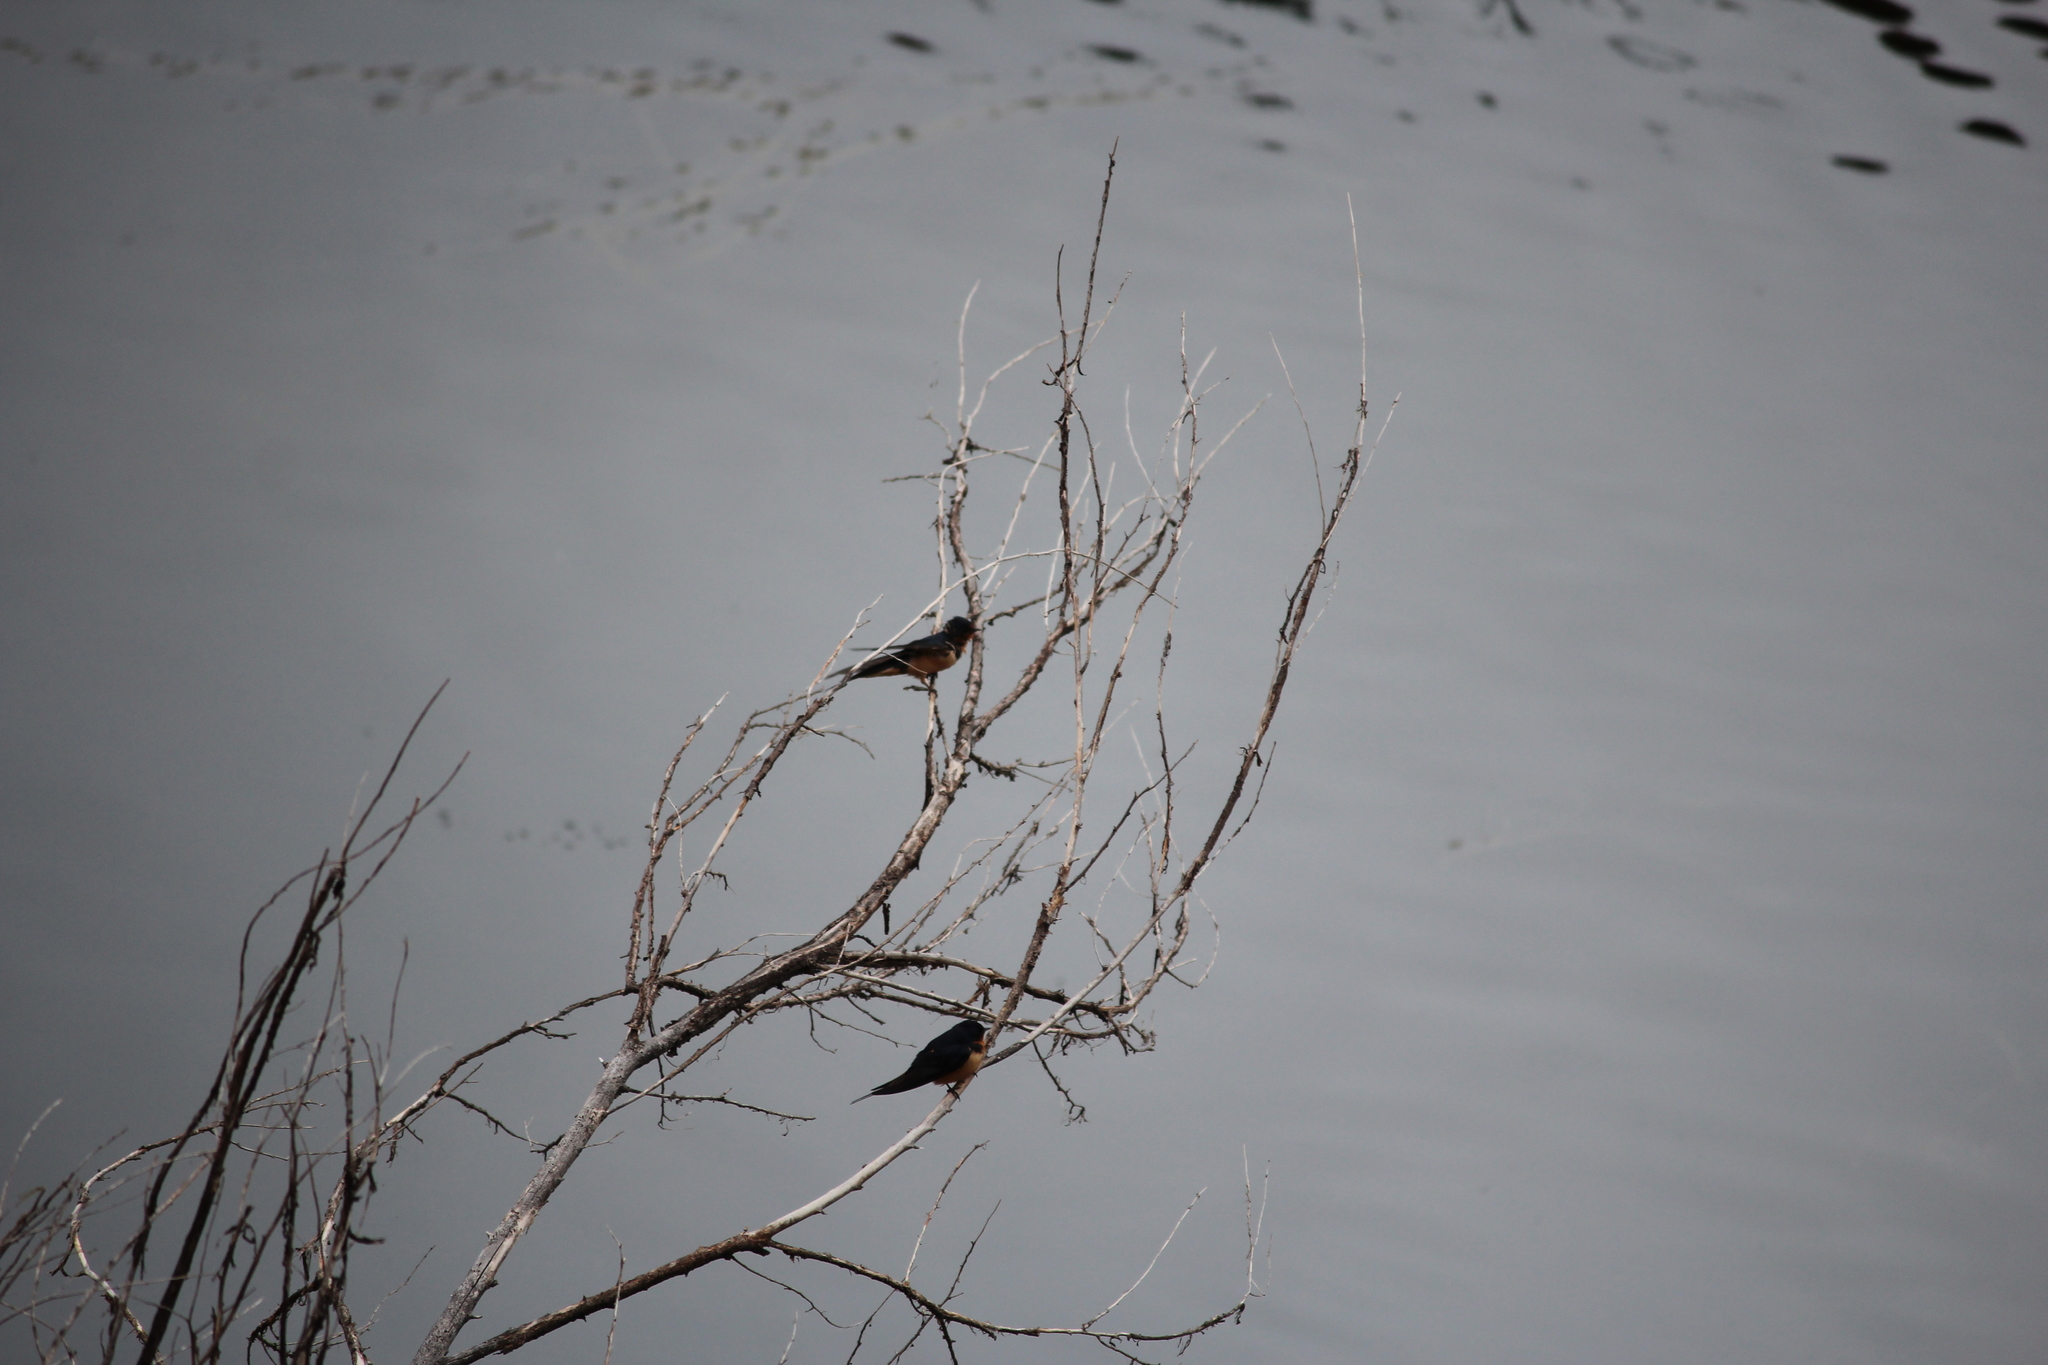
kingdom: Animalia
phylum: Chordata
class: Aves
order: Passeriformes
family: Hirundinidae
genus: Hirundo
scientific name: Hirundo rustica
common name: Barn swallow
